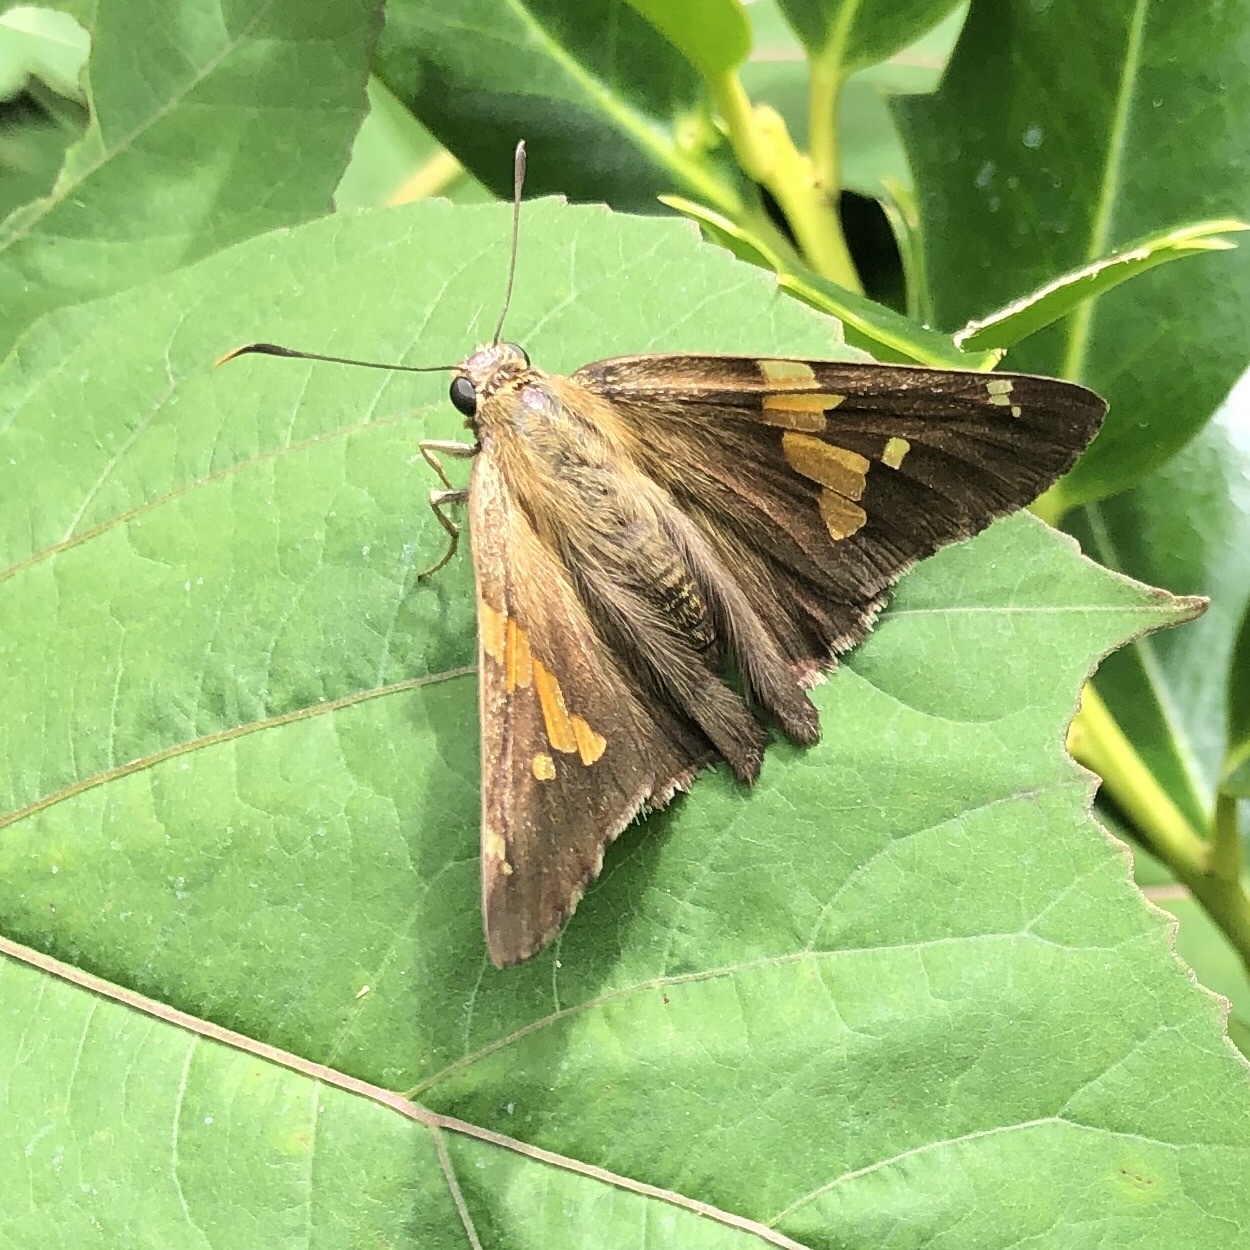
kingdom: Animalia
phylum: Arthropoda
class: Insecta
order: Lepidoptera
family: Hesperiidae
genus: Epargyreus
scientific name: Epargyreus clarus
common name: Silver-spotted skipper
